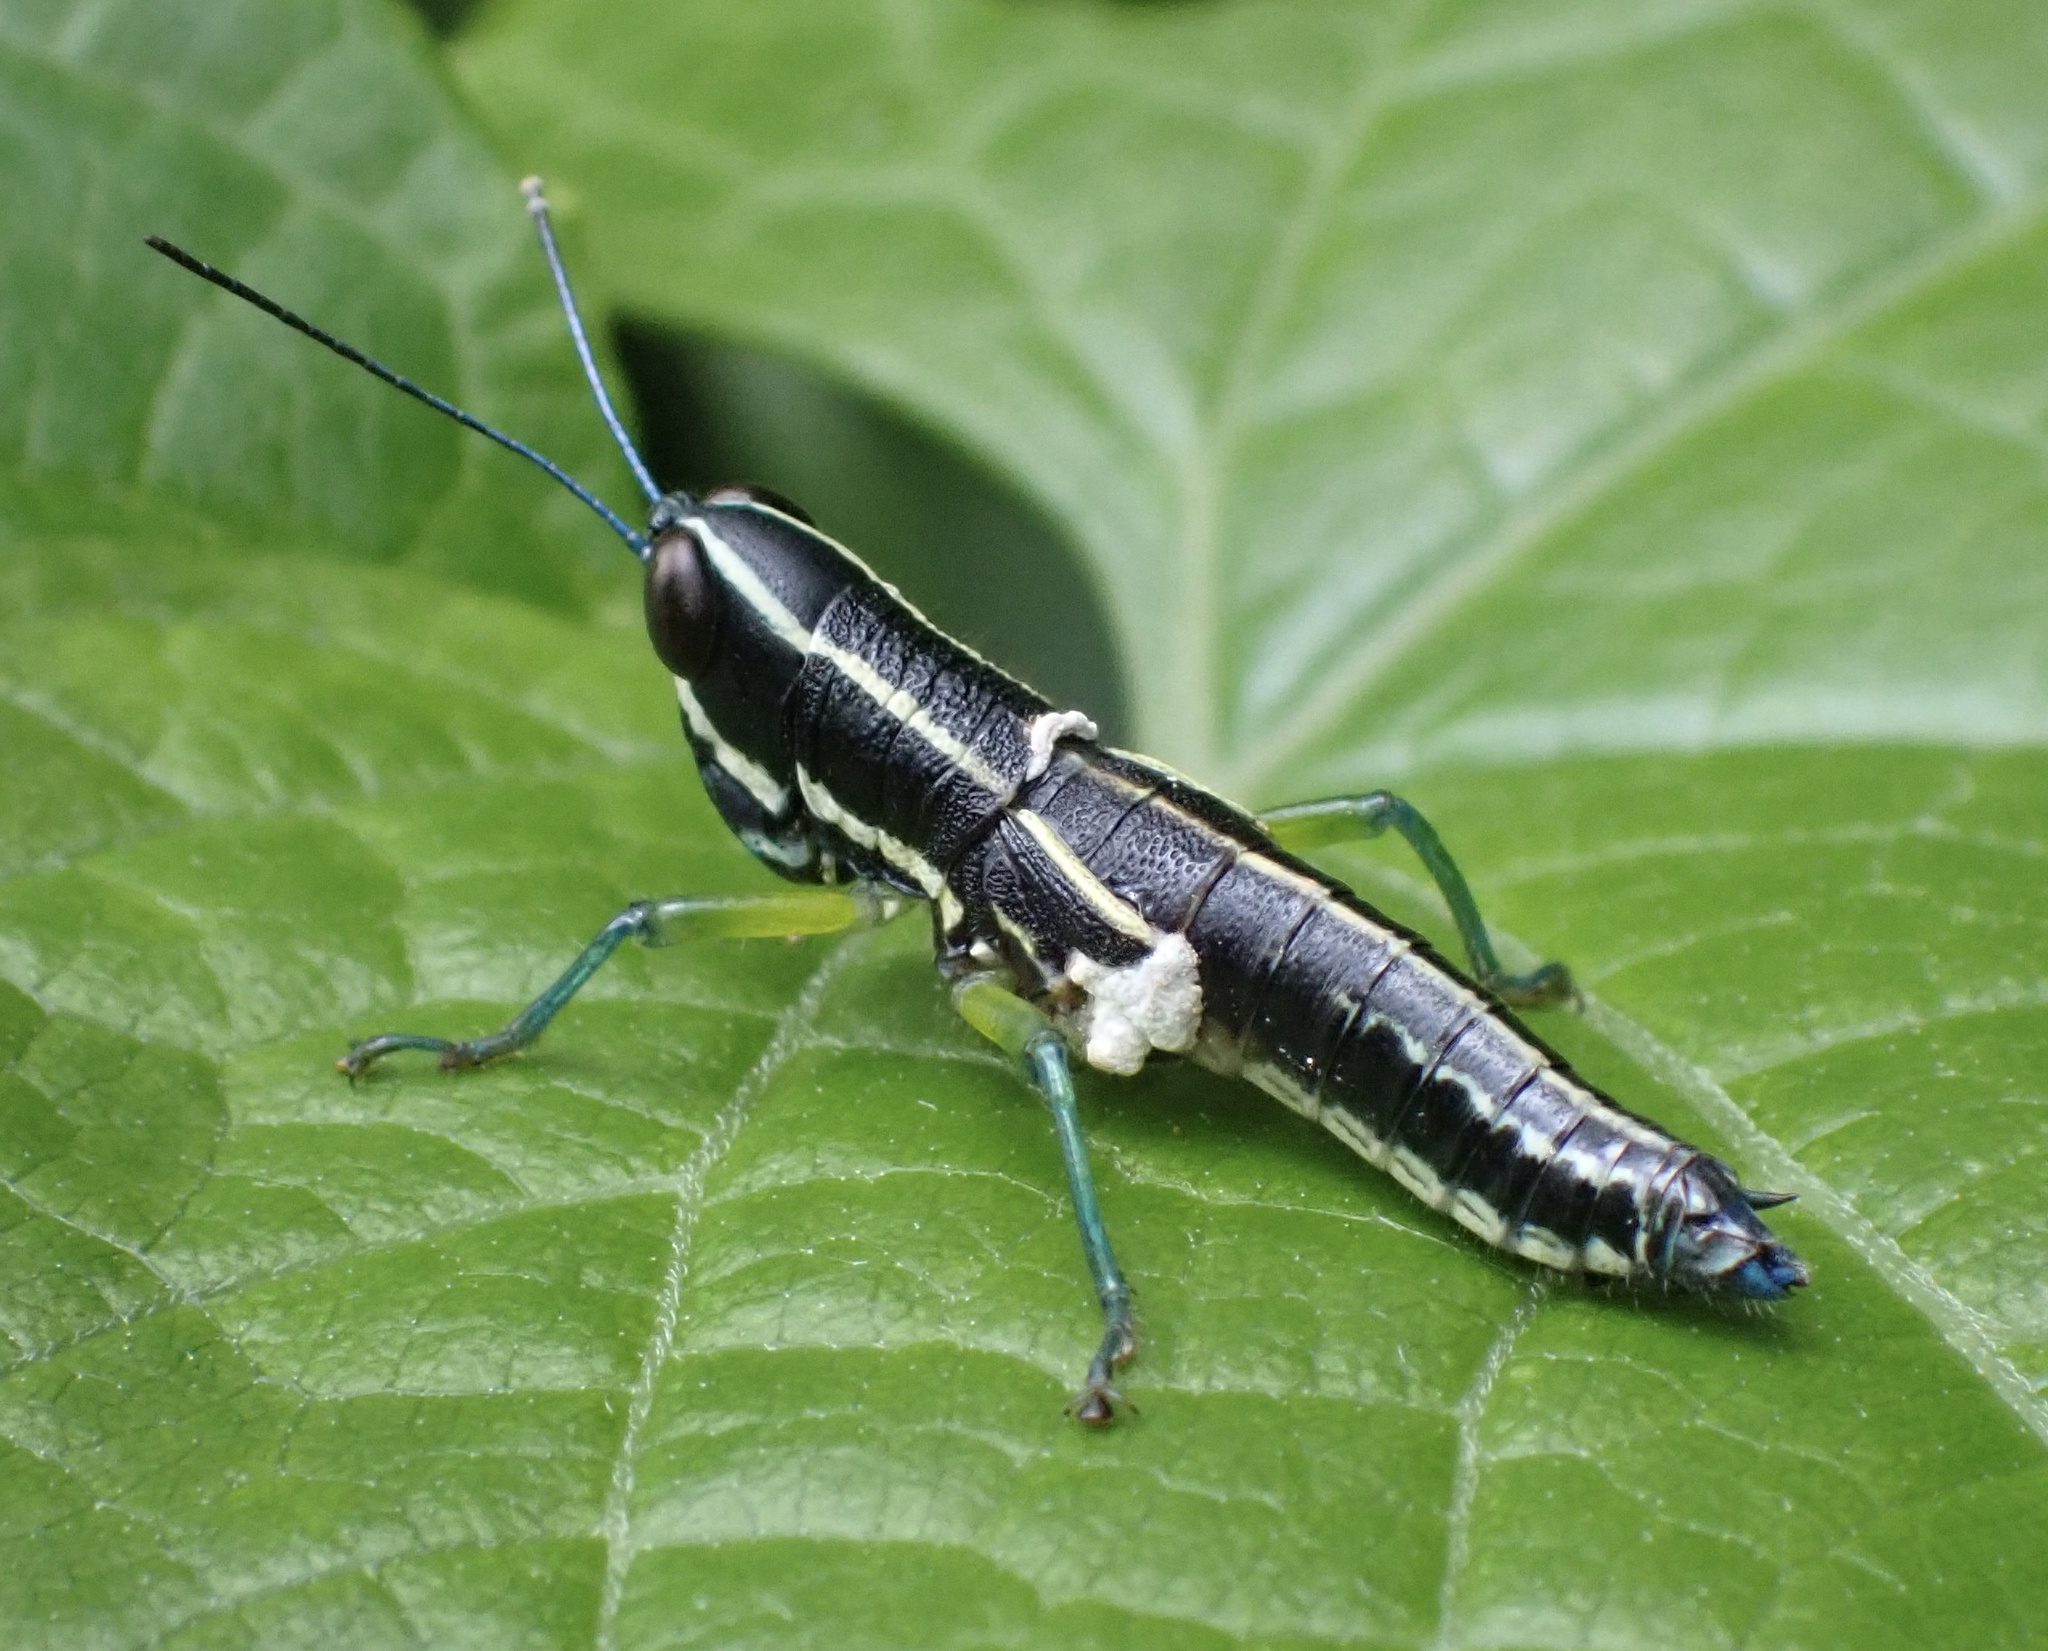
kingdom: Animalia
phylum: Arthropoda
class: Insecta
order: Orthoptera
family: Acrididae
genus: Chitaura
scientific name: Chitaura ochracea
